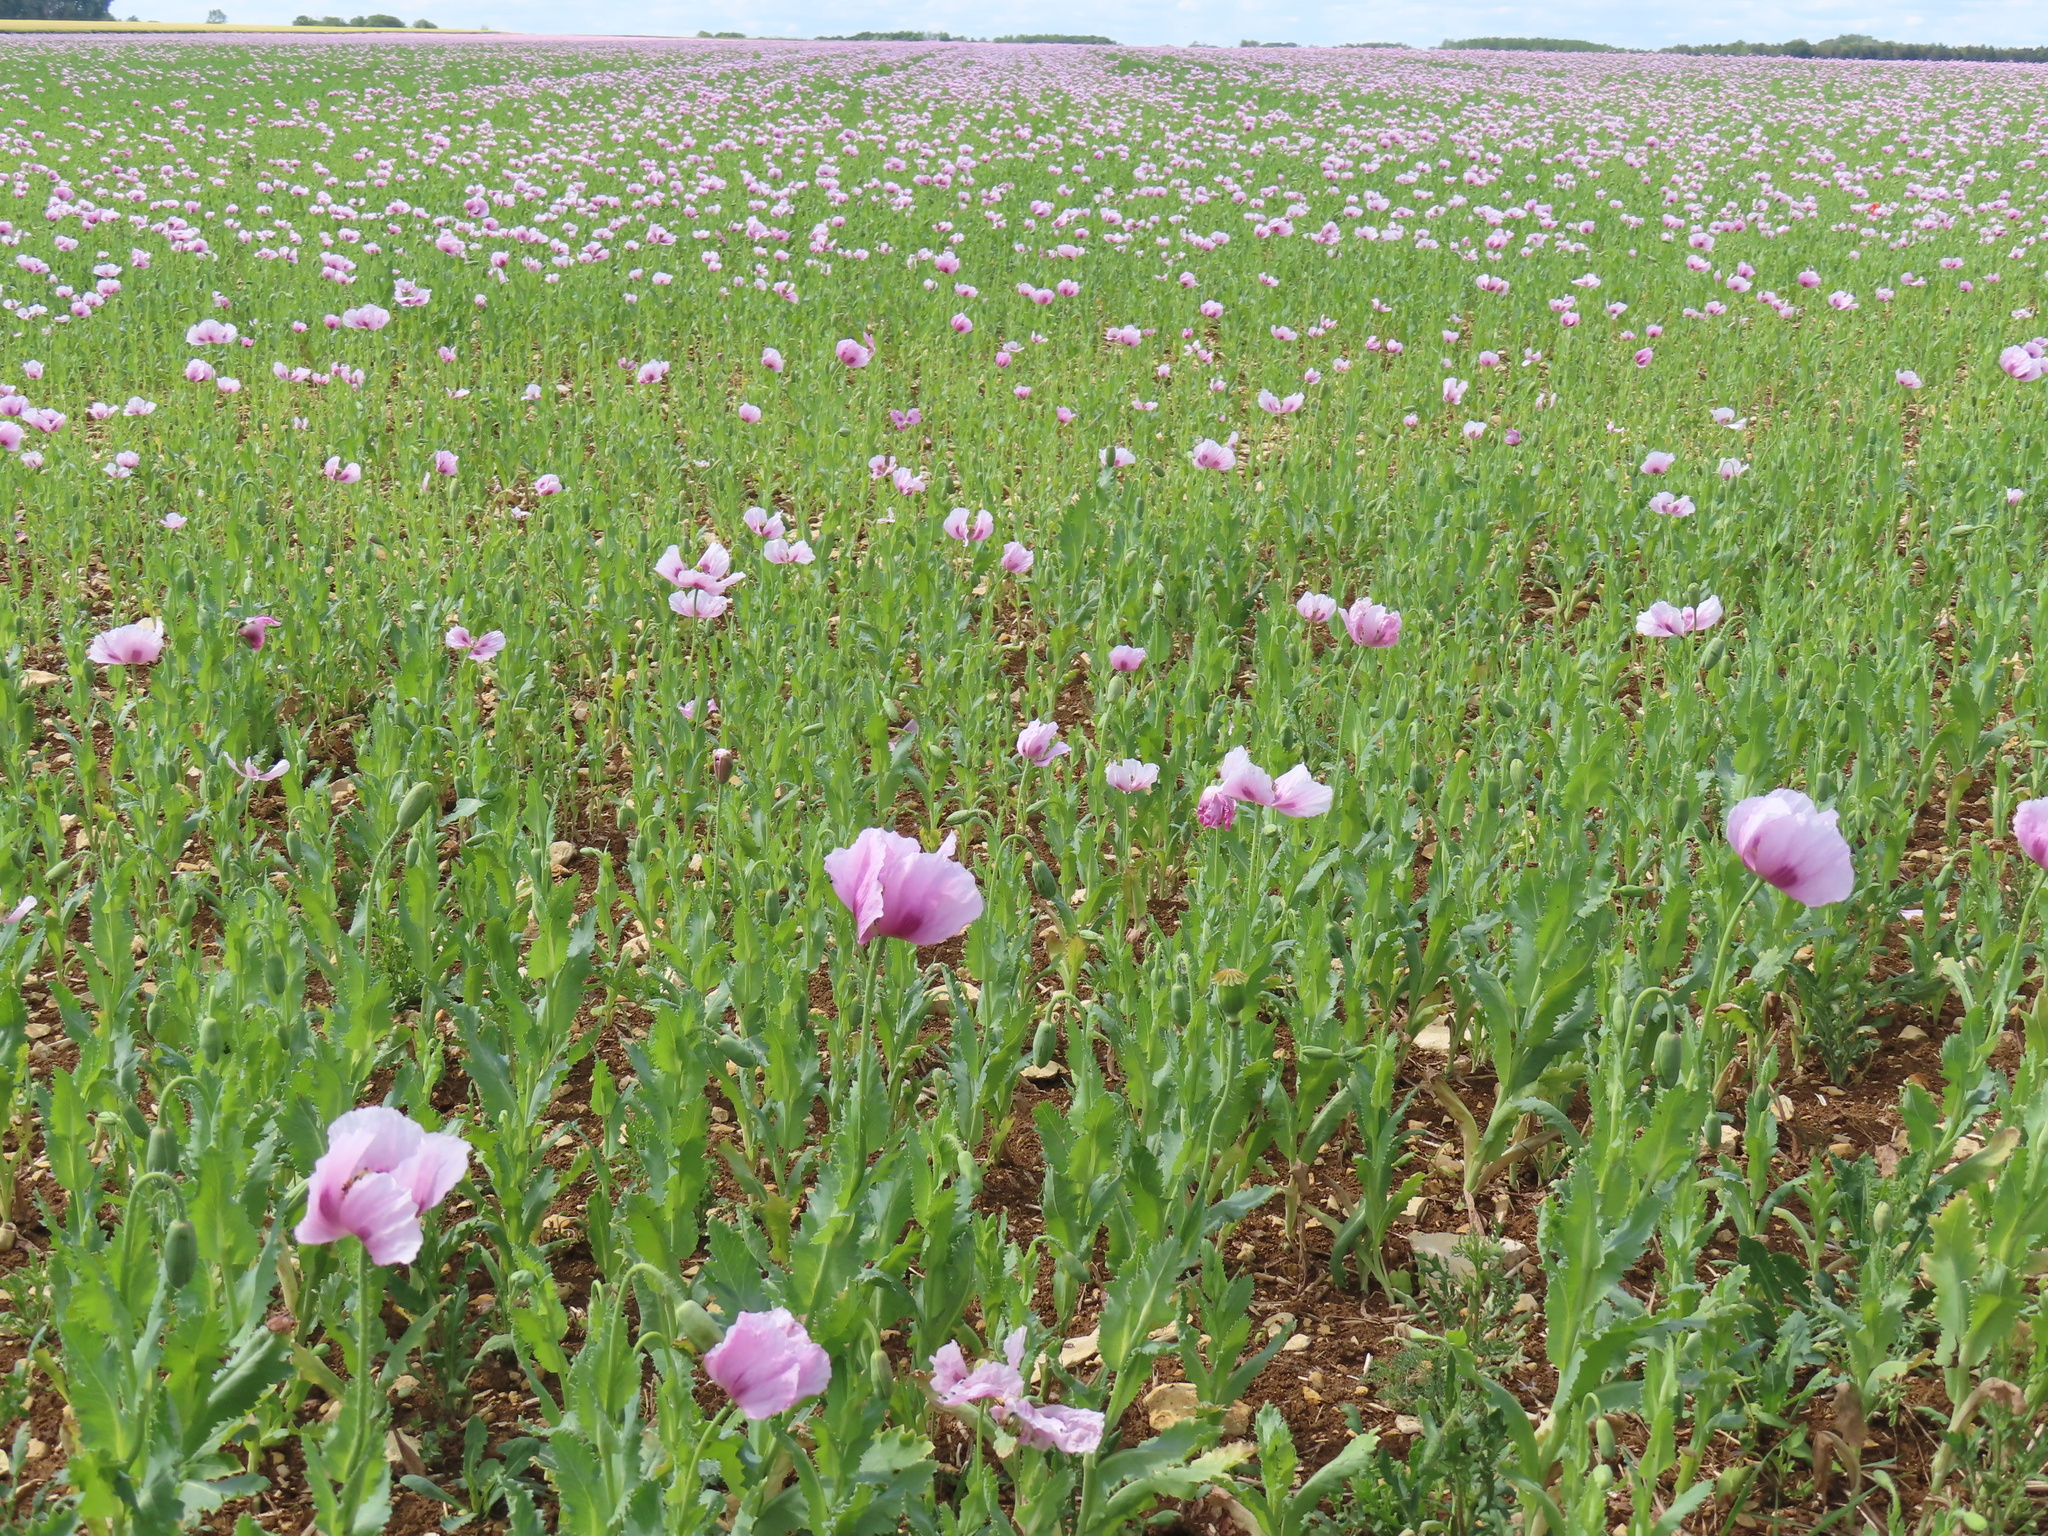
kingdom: Plantae
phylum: Tracheophyta
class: Magnoliopsida
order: Ranunculales
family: Papaveraceae
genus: Papaver
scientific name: Papaver somniferum
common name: Opium poppy
